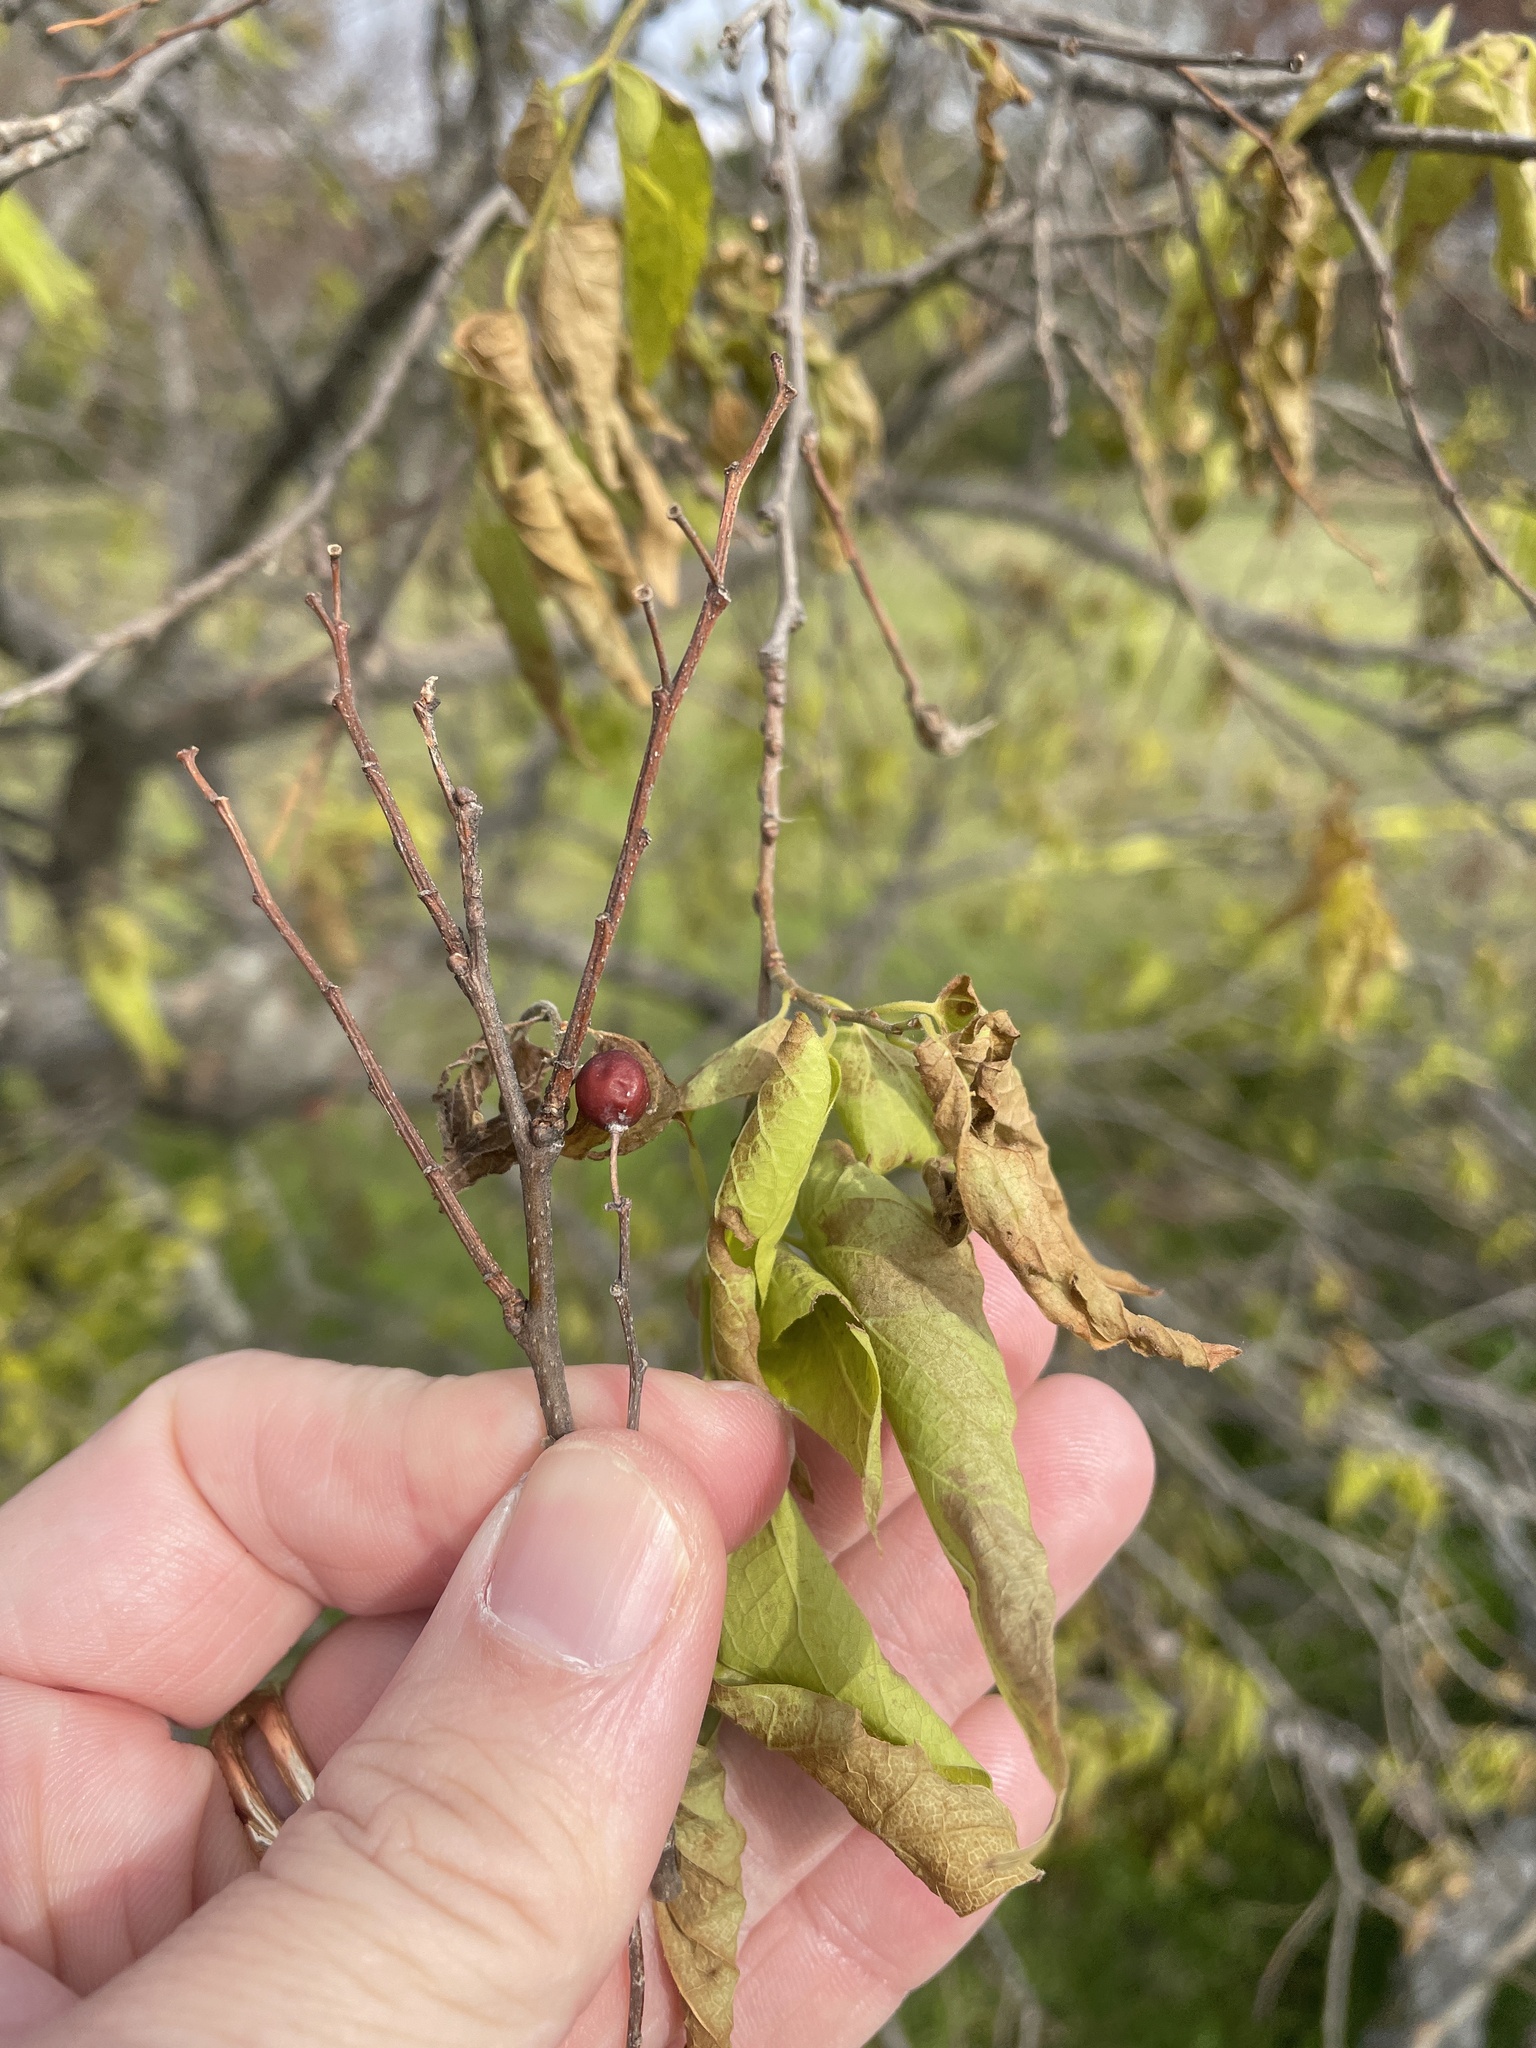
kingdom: Plantae
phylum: Tracheophyta
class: Magnoliopsida
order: Rosales
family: Cannabaceae
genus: Celtis
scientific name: Celtis laevigata
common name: Sugarberry
